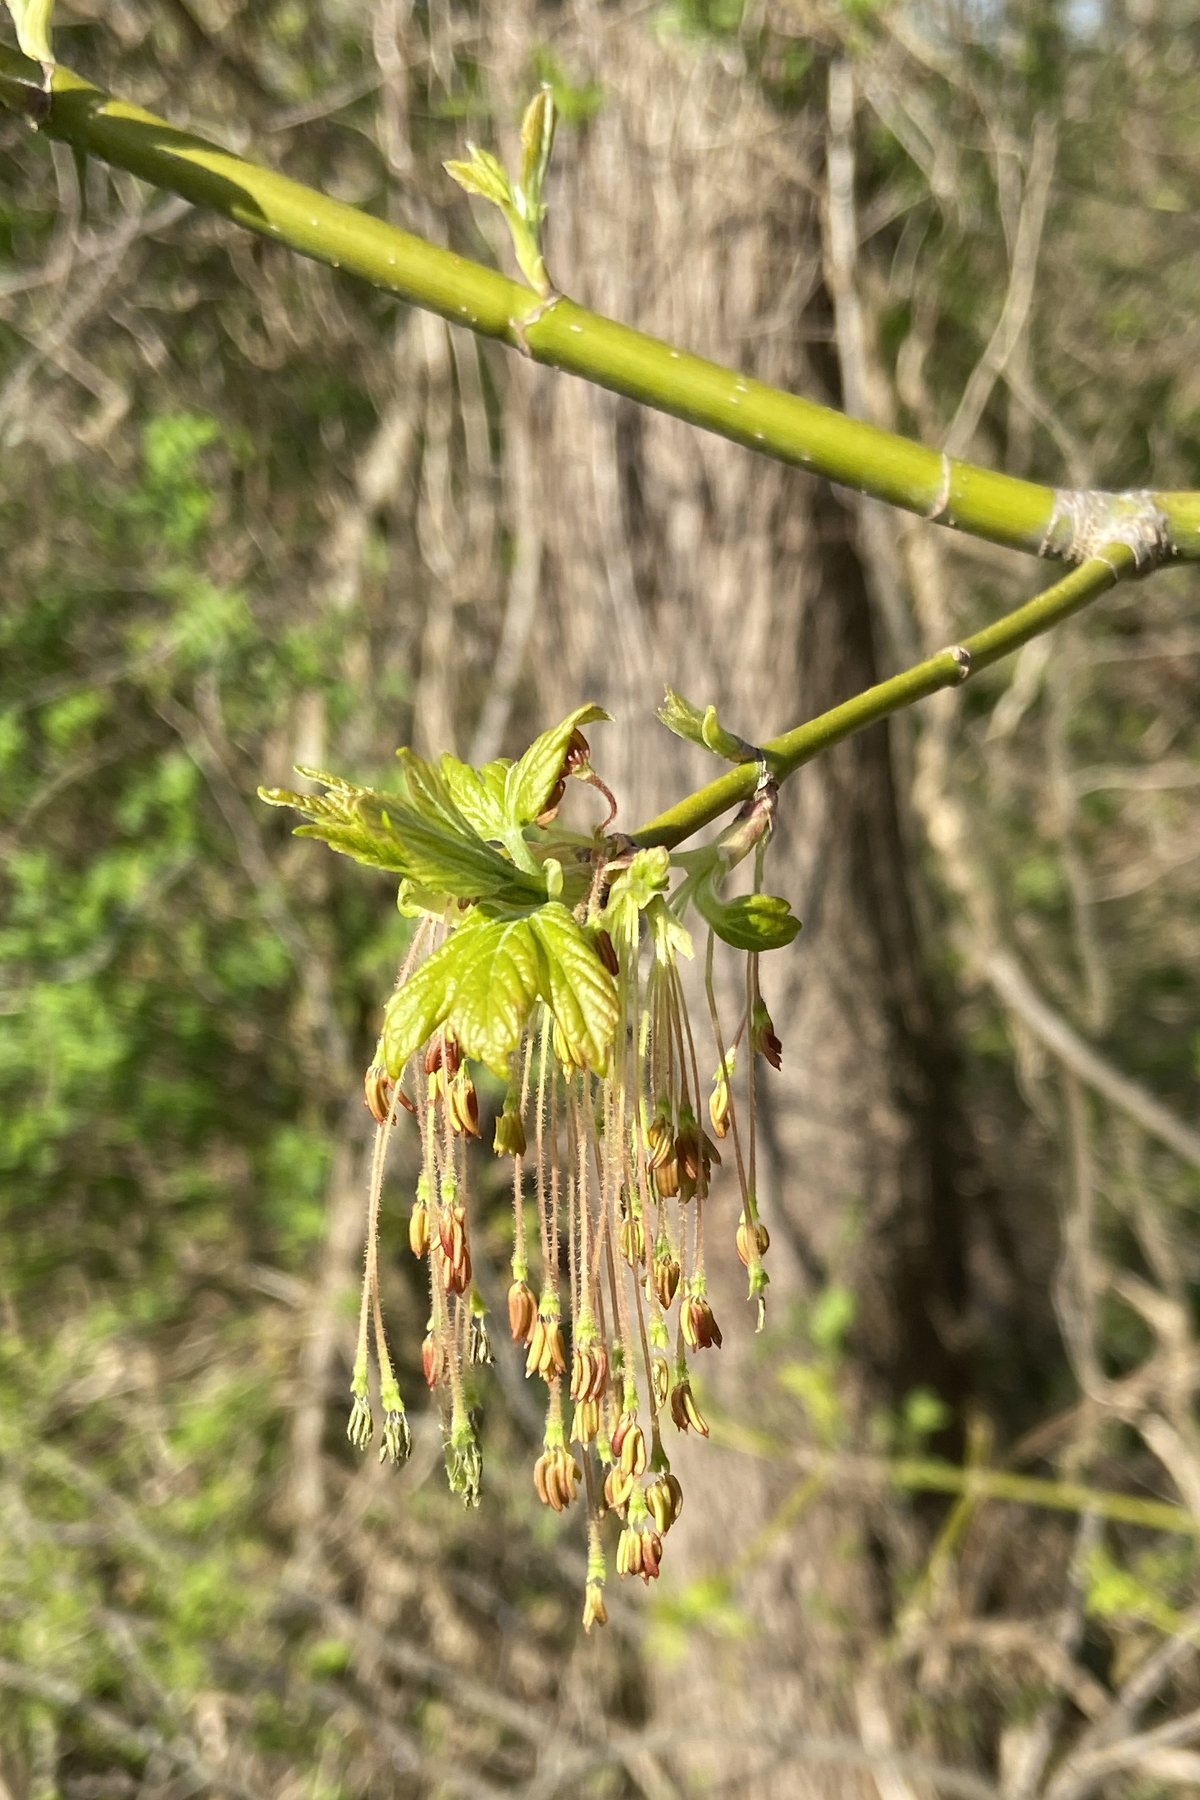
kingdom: Plantae
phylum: Tracheophyta
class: Magnoliopsida
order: Sapindales
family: Sapindaceae
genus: Acer
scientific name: Acer negundo
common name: Ashleaf maple
